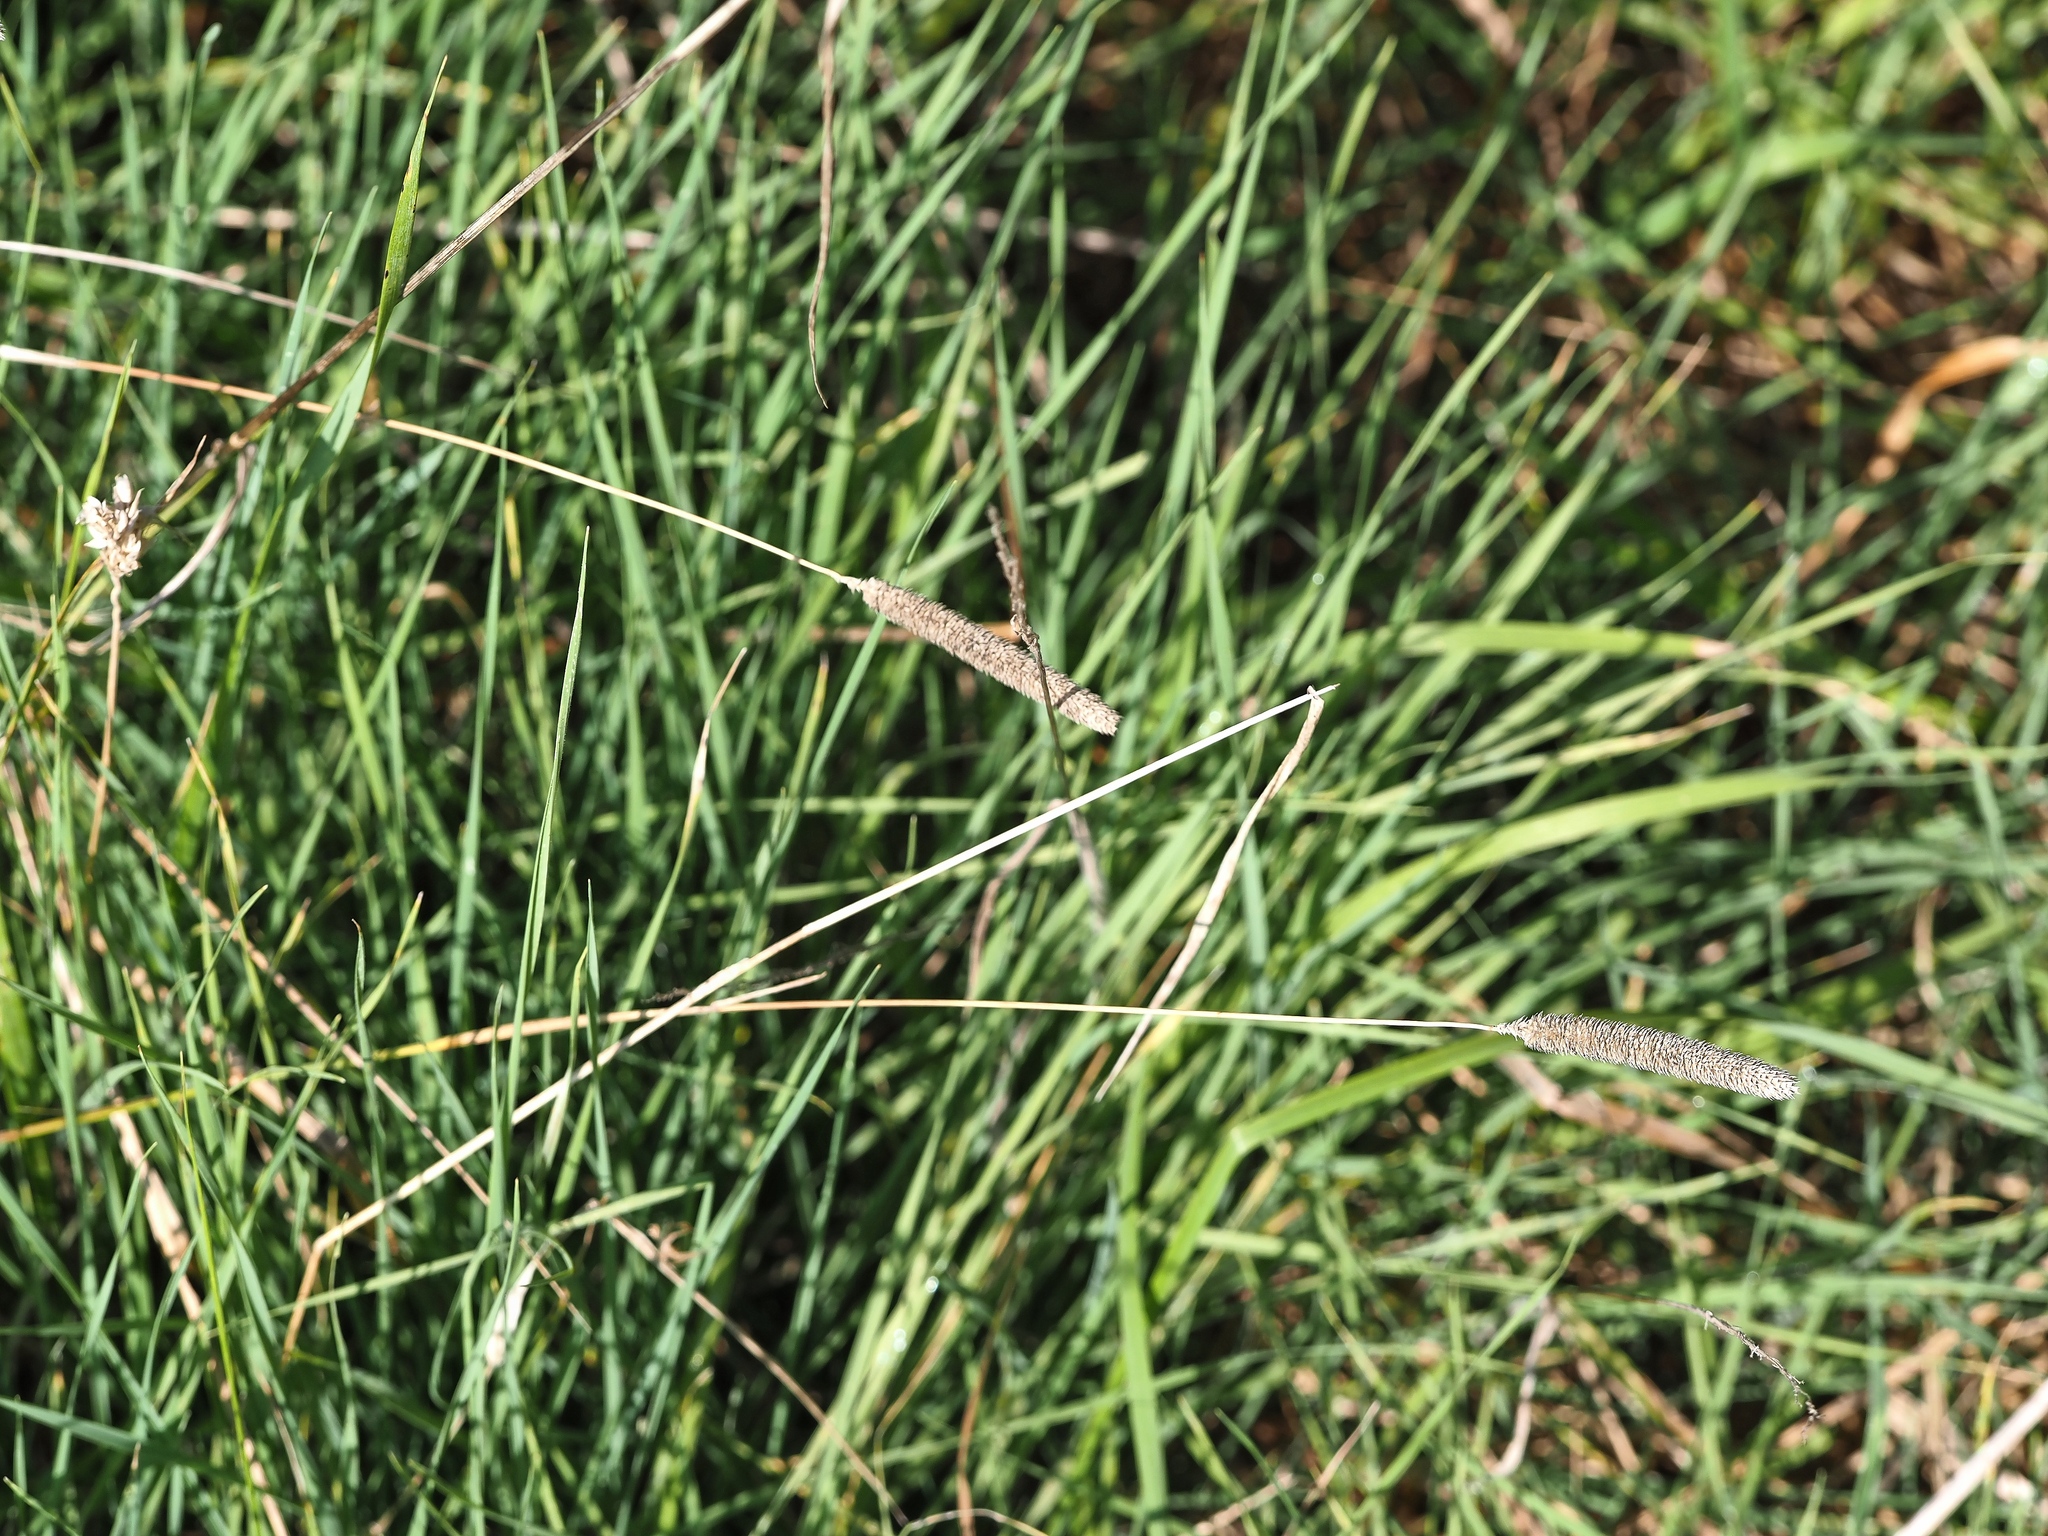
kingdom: Plantae
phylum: Tracheophyta
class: Liliopsida
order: Poales
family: Poaceae
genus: Phleum
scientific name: Phleum pratense
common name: Timothy grass
